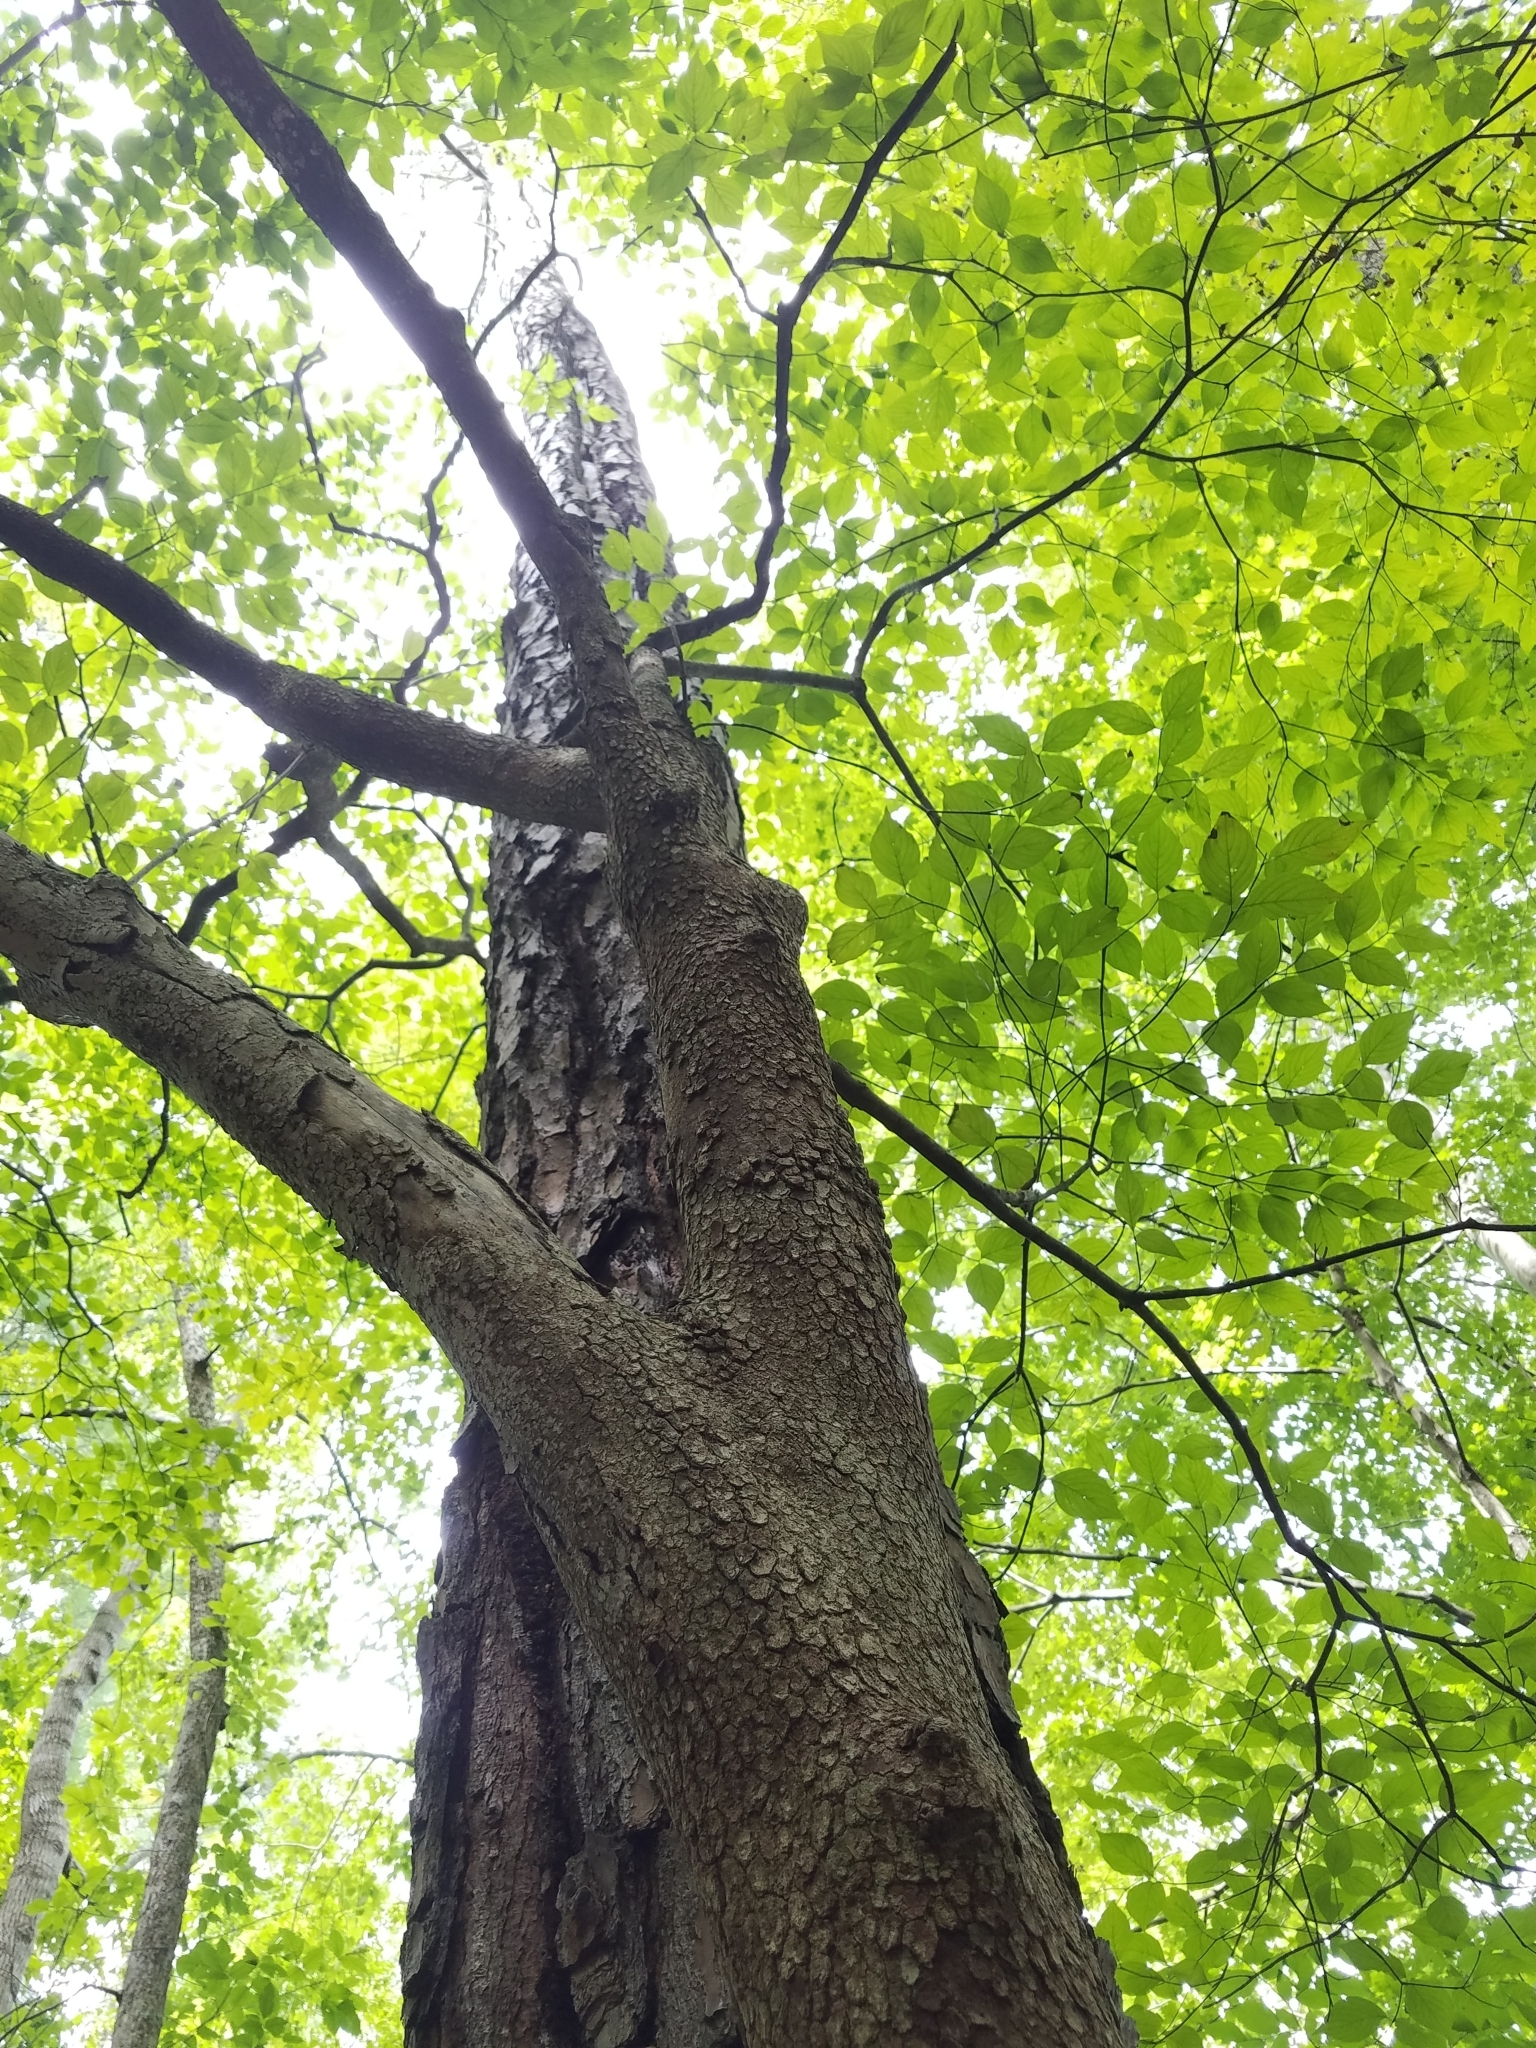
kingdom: Plantae
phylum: Tracheophyta
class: Magnoliopsida
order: Cornales
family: Cornaceae
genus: Cornus
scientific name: Cornus florida
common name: Flowering dogwood
